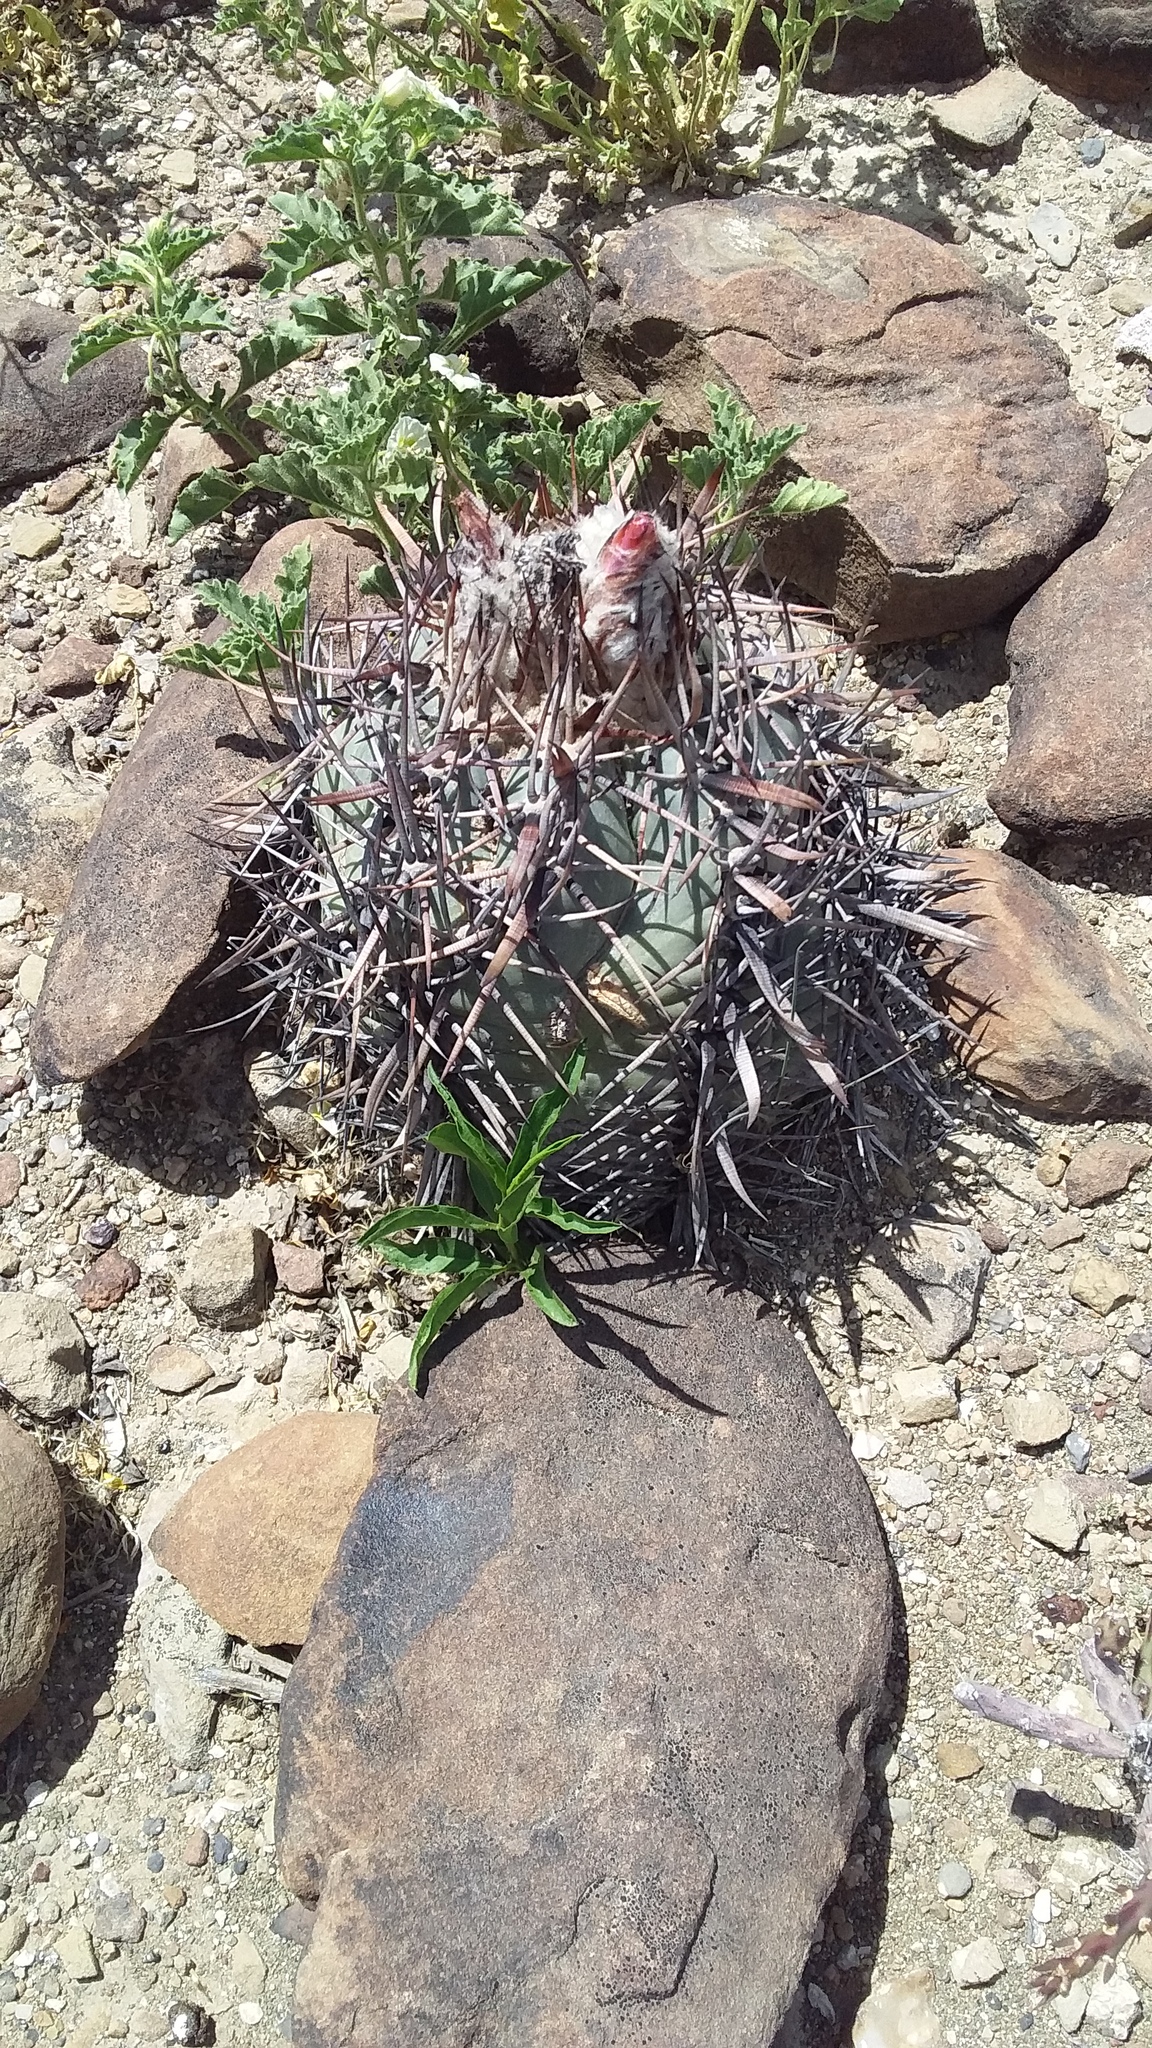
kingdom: Plantae
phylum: Tracheophyta
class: Magnoliopsida
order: Caryophyllales
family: Cactaceae
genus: Echinocactus
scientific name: Echinocactus horizonthalonius
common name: Devilshead
